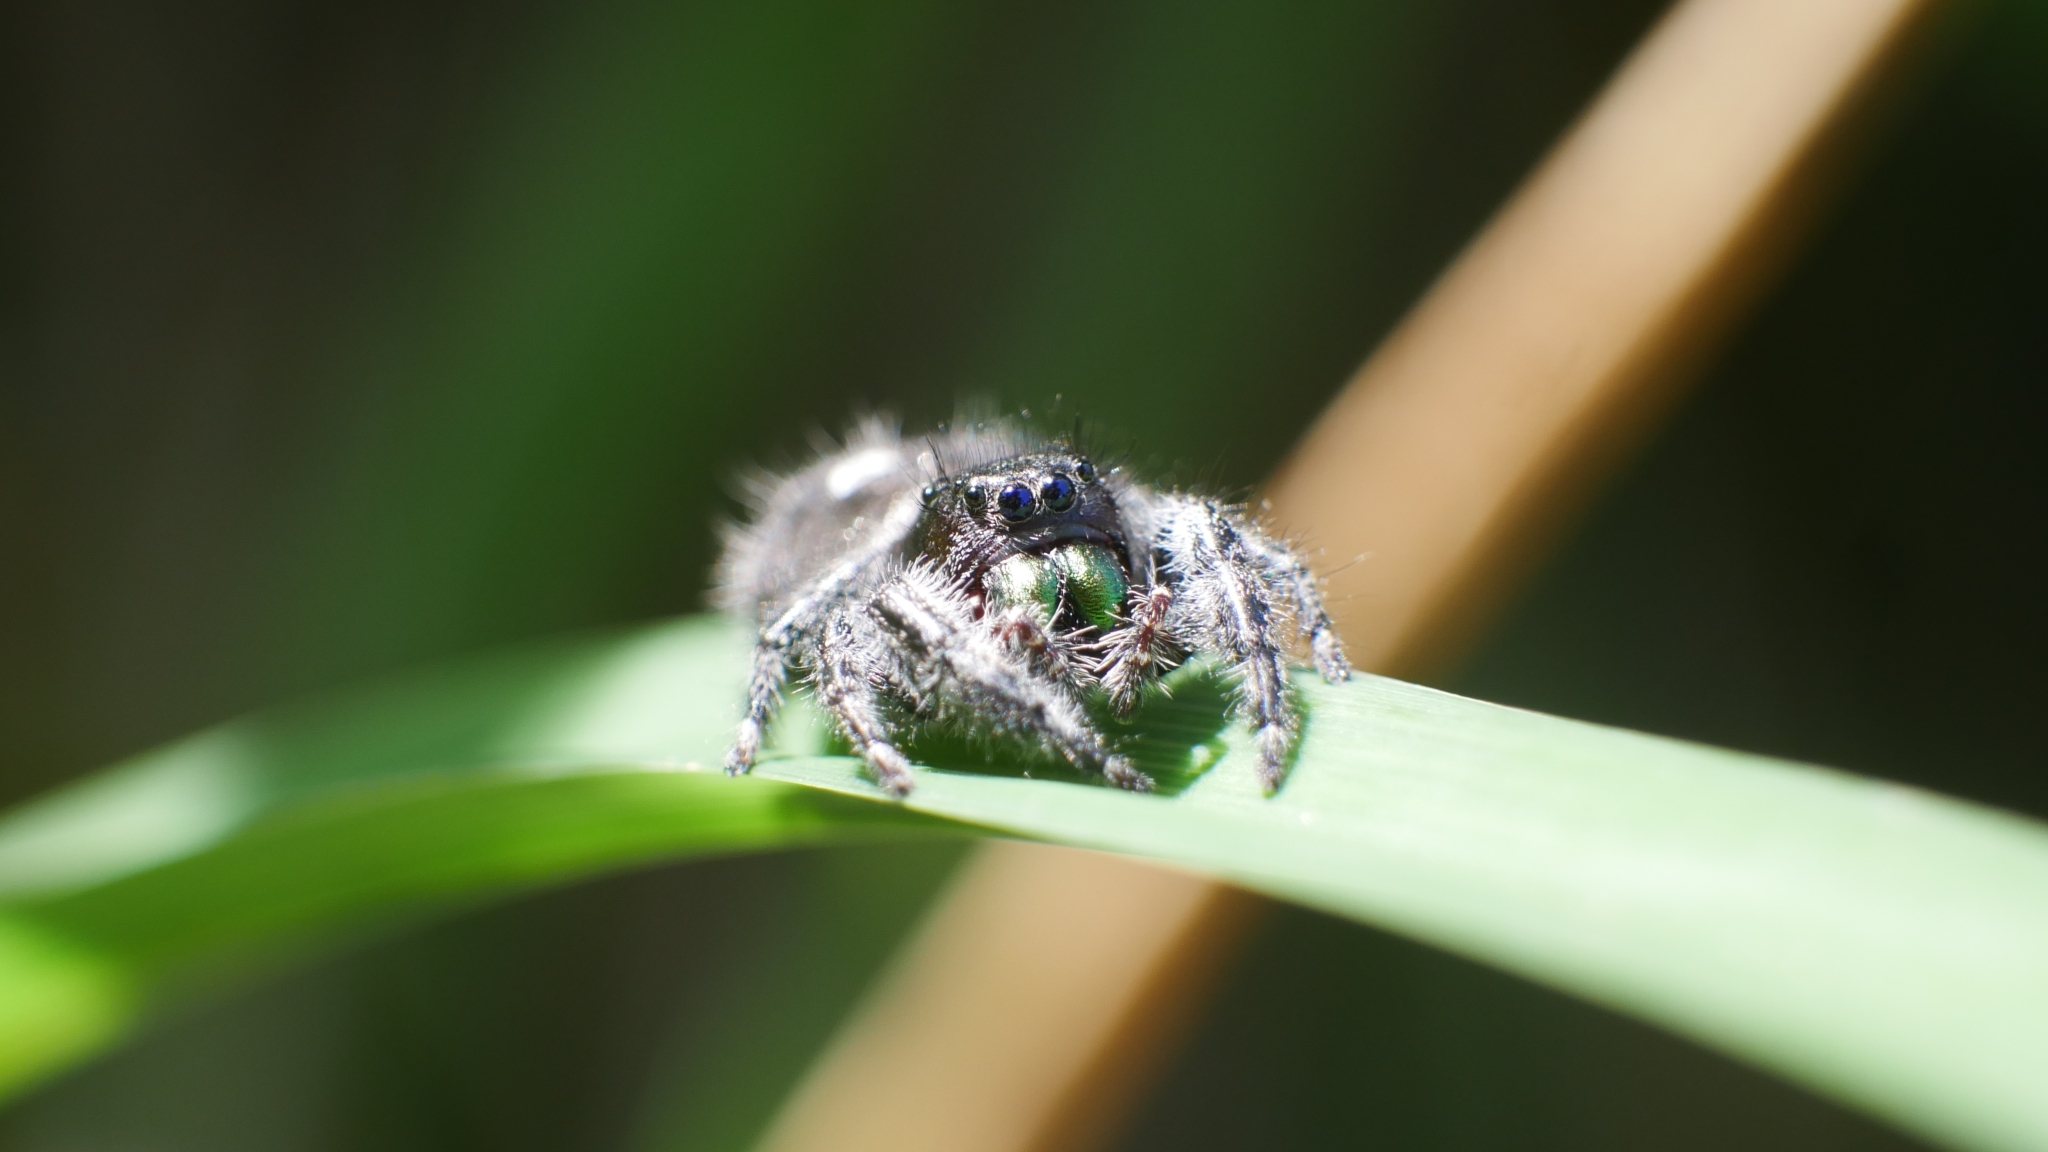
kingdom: Animalia
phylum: Arthropoda
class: Arachnida
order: Araneae
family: Salticidae
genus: Phidippus
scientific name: Phidippus audax
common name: Bold jumper
